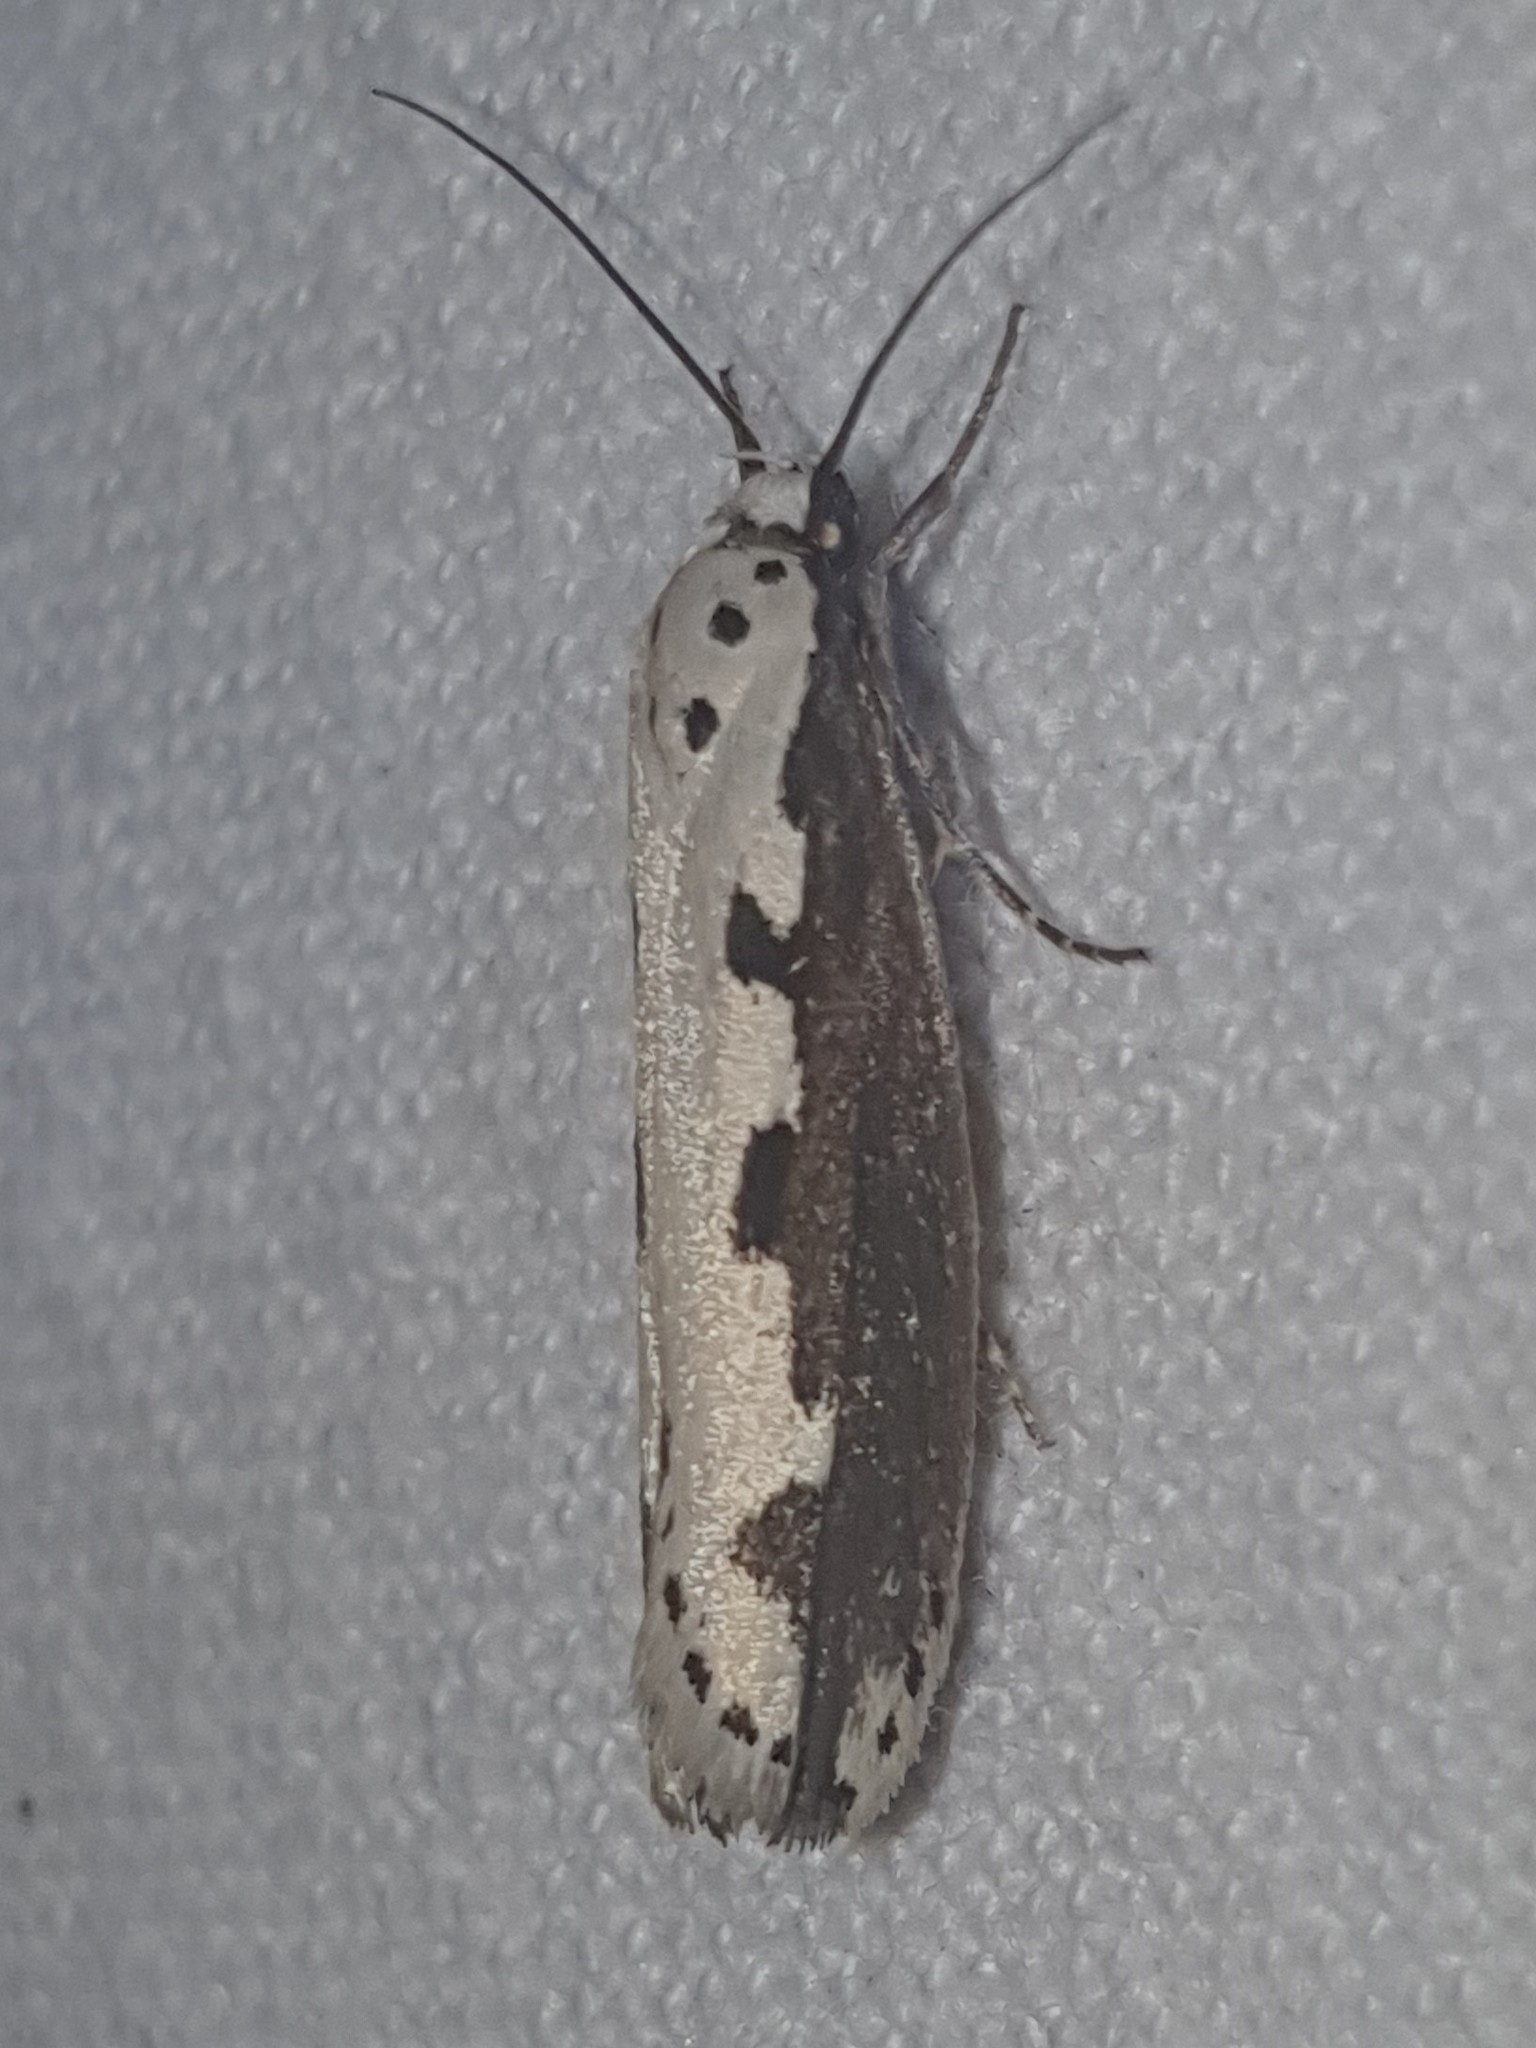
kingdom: Animalia
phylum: Arthropoda
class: Insecta
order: Lepidoptera
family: Ethmiidae
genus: Ethmia
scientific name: Ethmia bipunctella
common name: Bordered ermel
